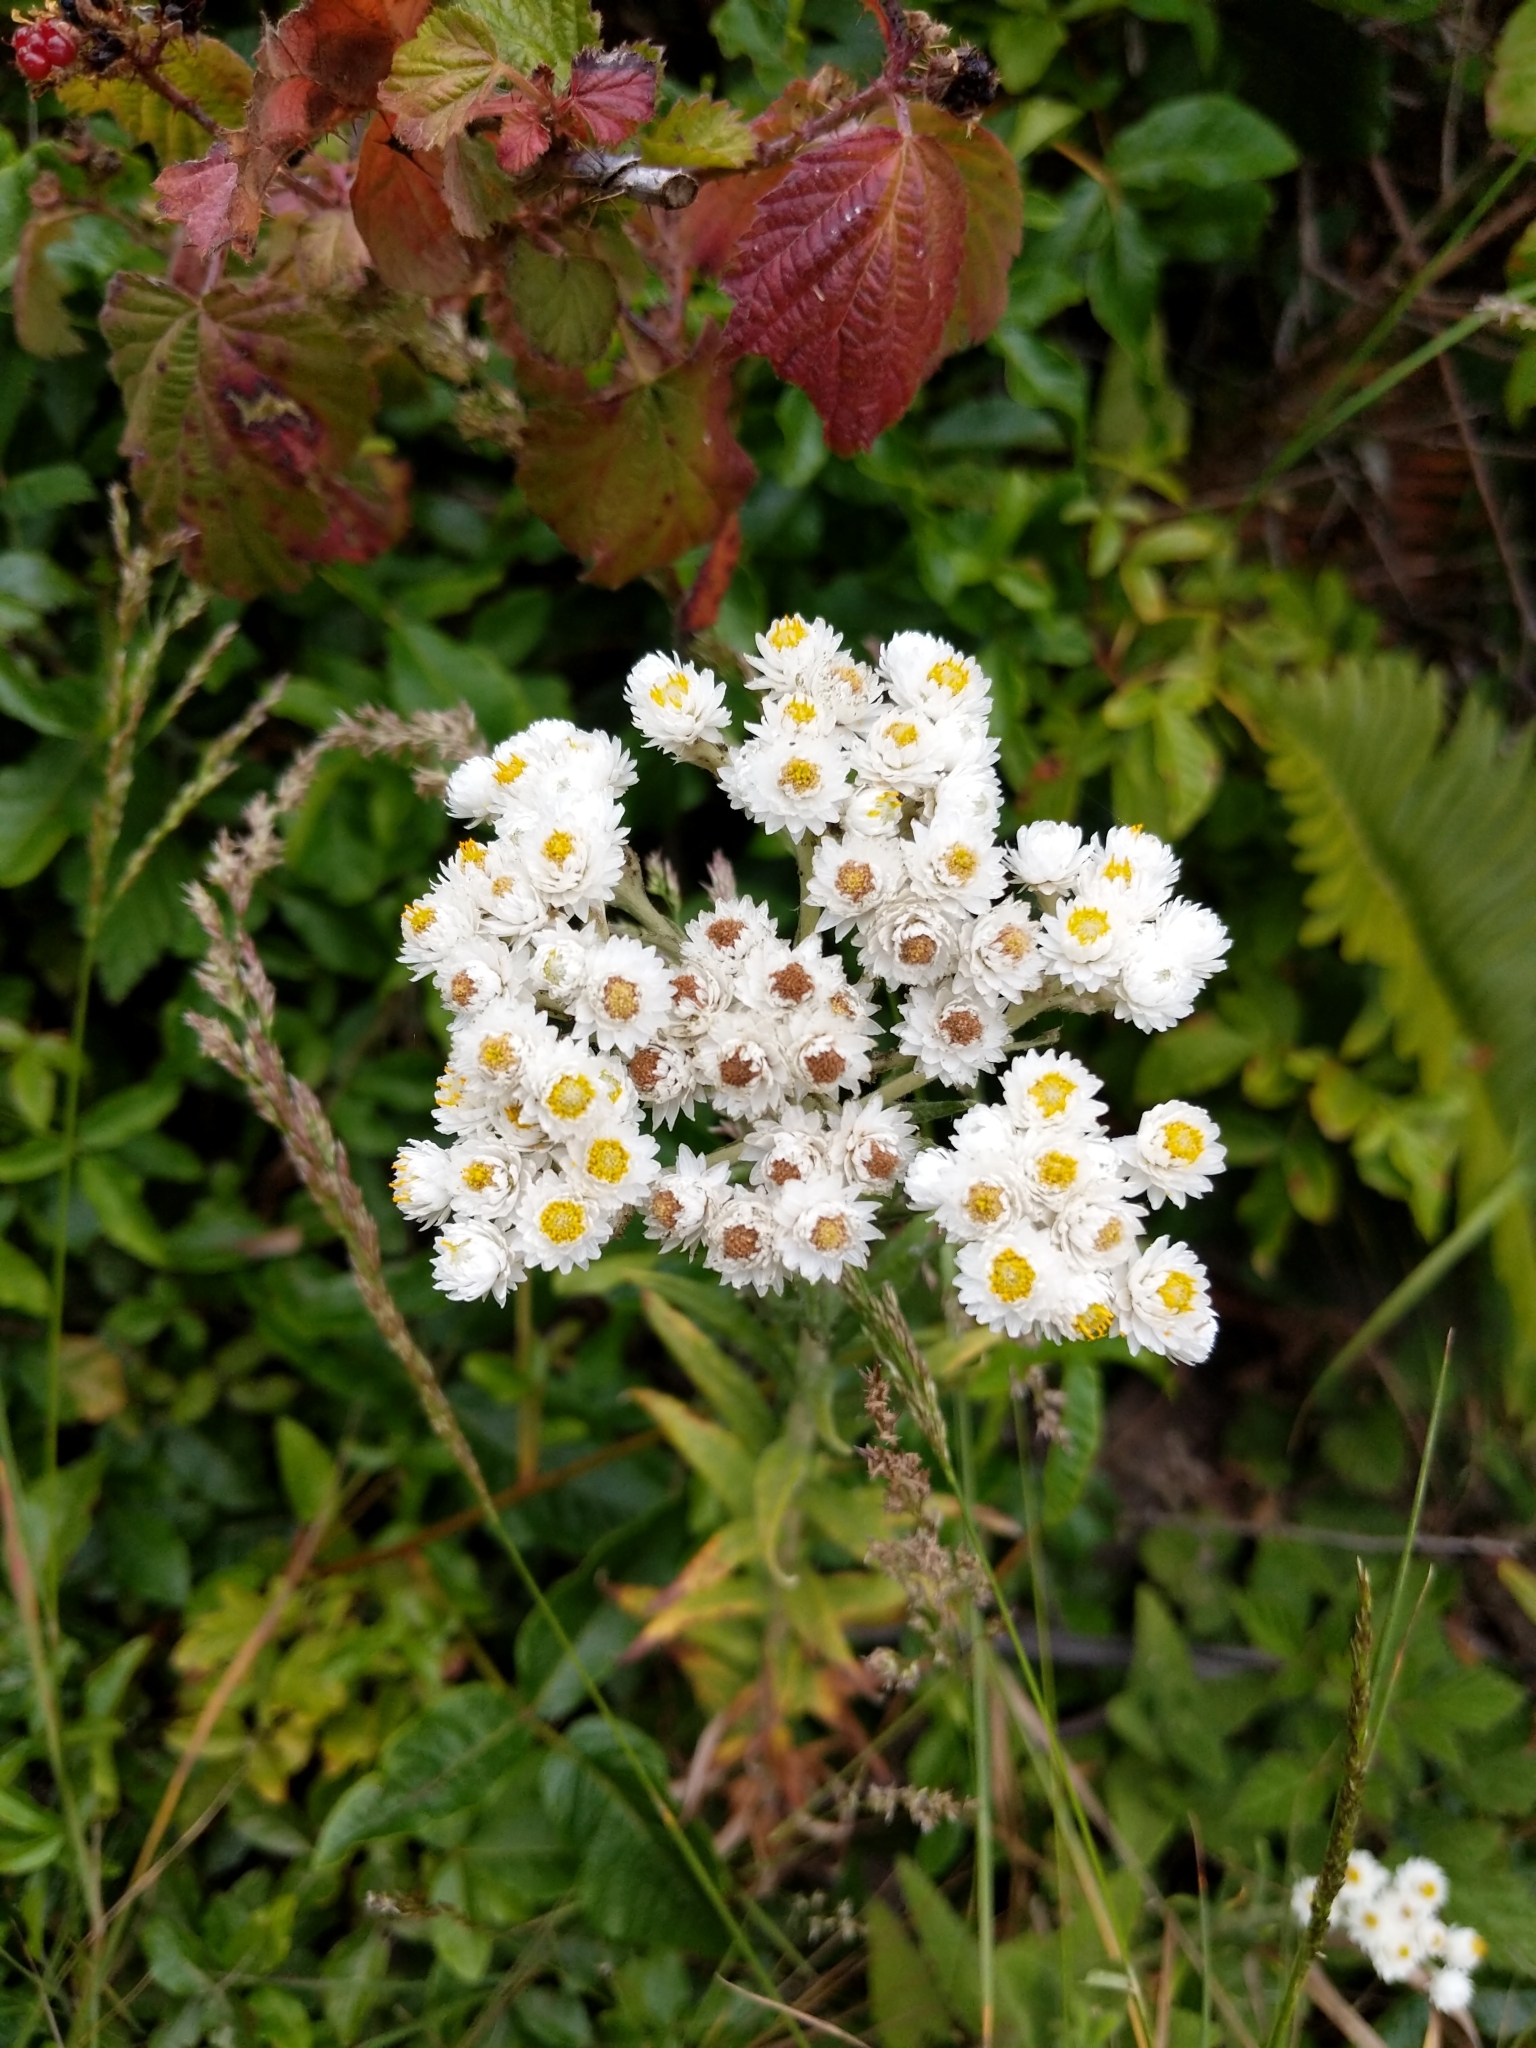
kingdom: Plantae
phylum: Tracheophyta
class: Magnoliopsida
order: Asterales
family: Asteraceae
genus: Anaphalis
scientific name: Anaphalis margaritacea
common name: Pearly everlasting
